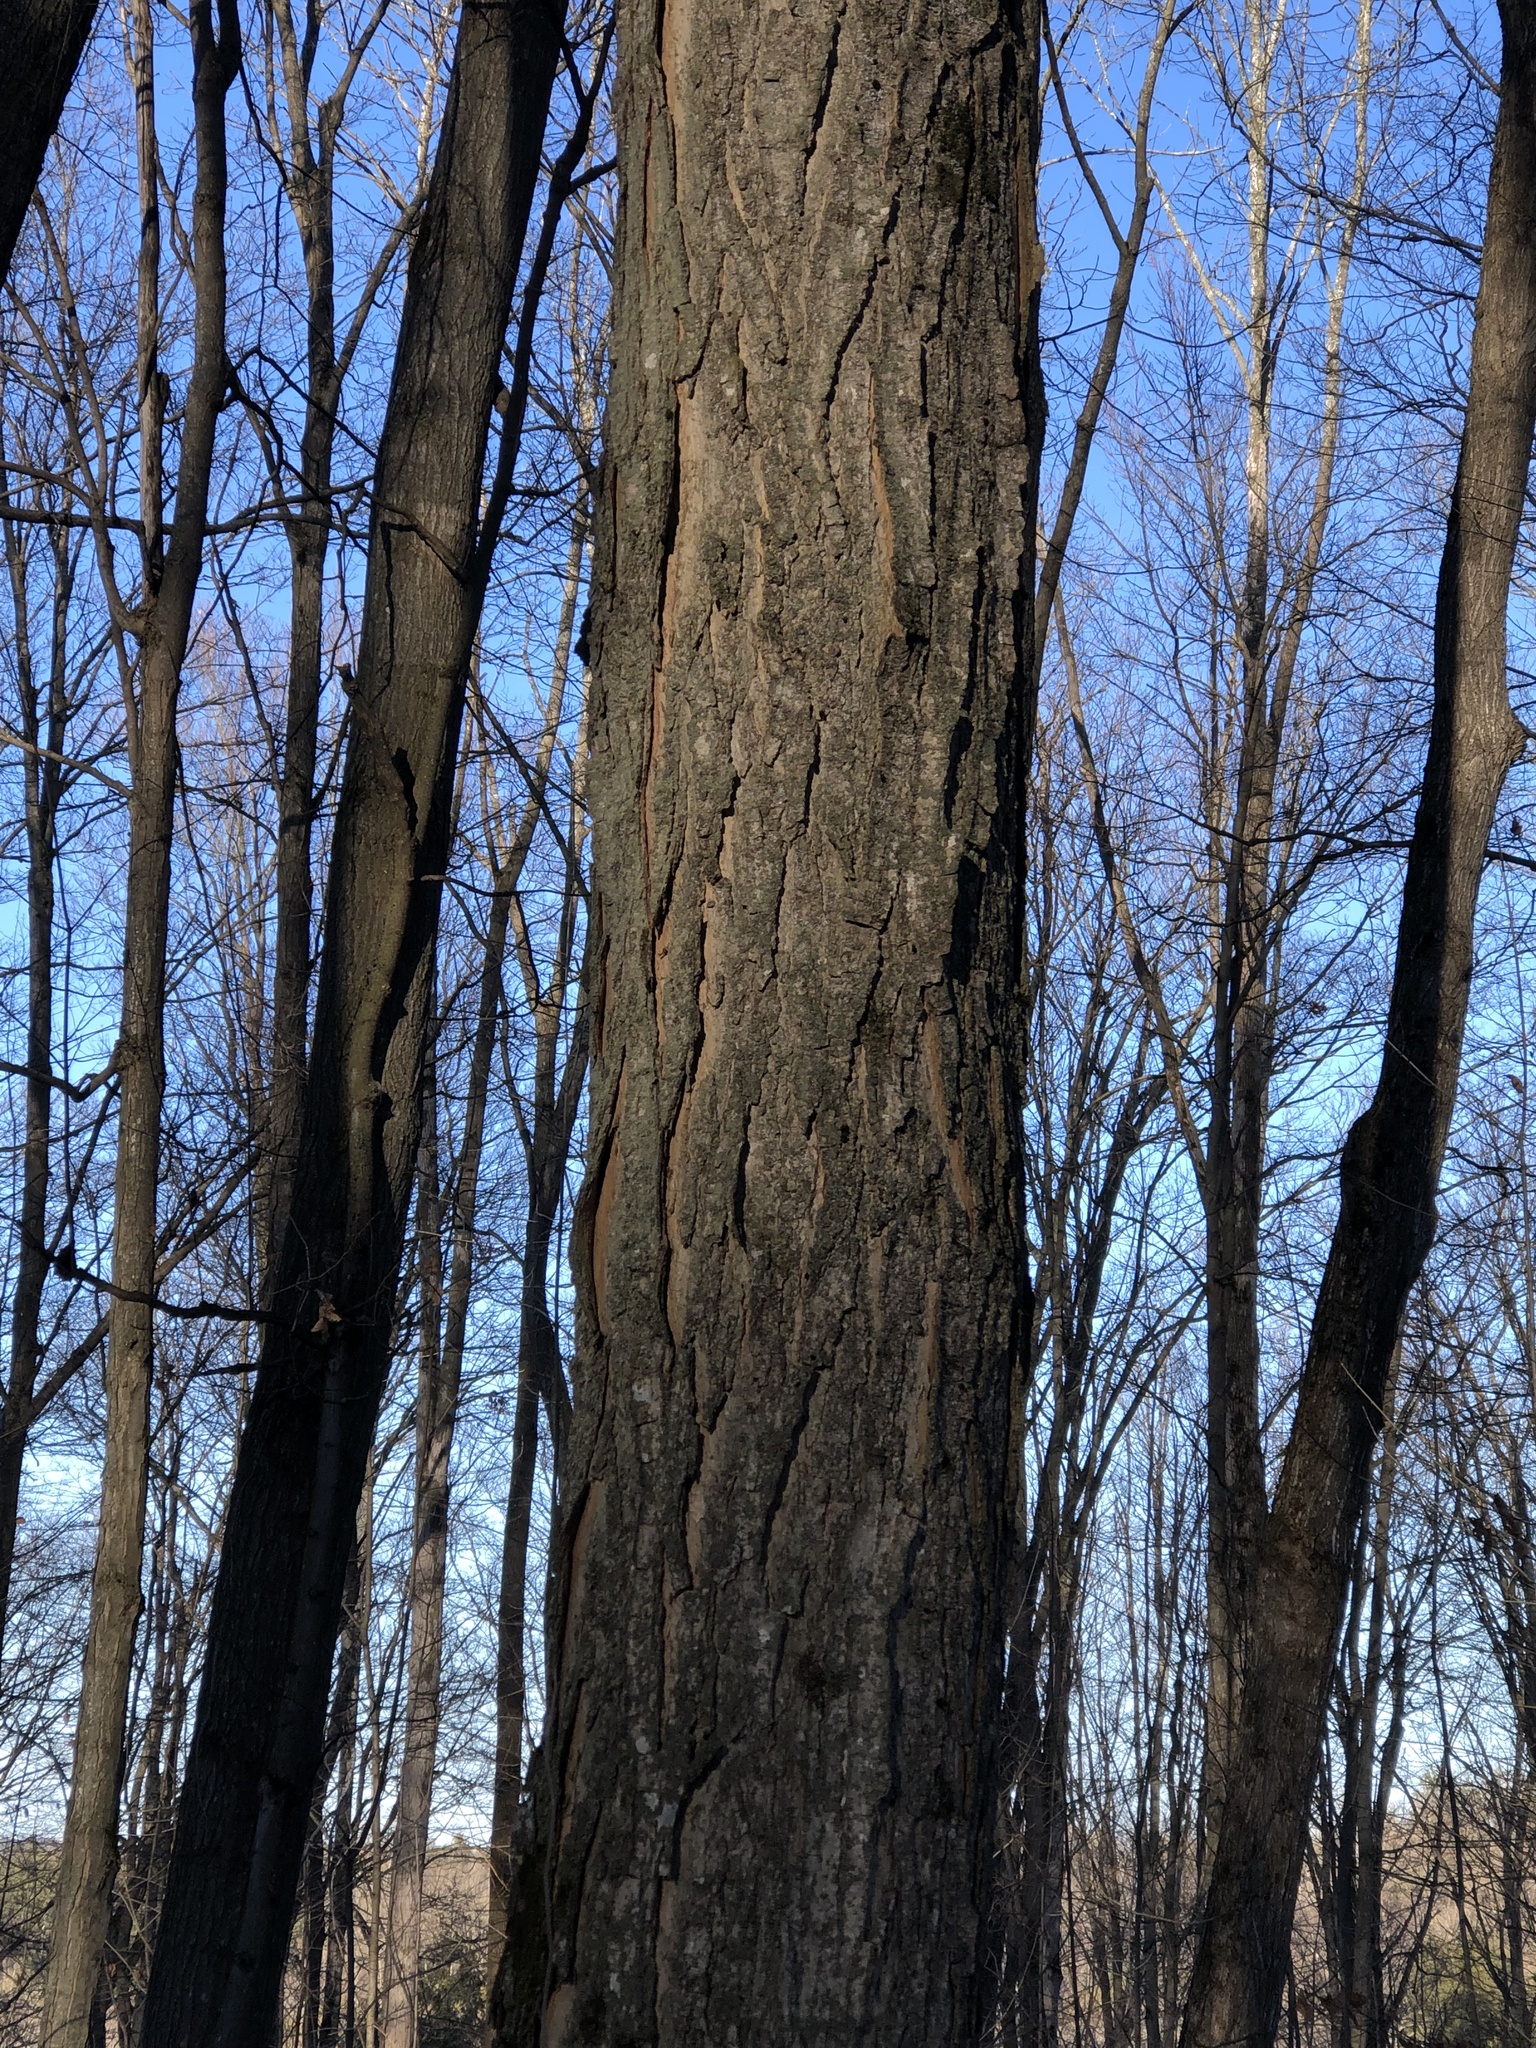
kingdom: Plantae
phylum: Tracheophyta
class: Magnoliopsida
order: Sapindales
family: Sapindaceae
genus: Acer
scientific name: Acer saccharum
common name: Sugar maple
